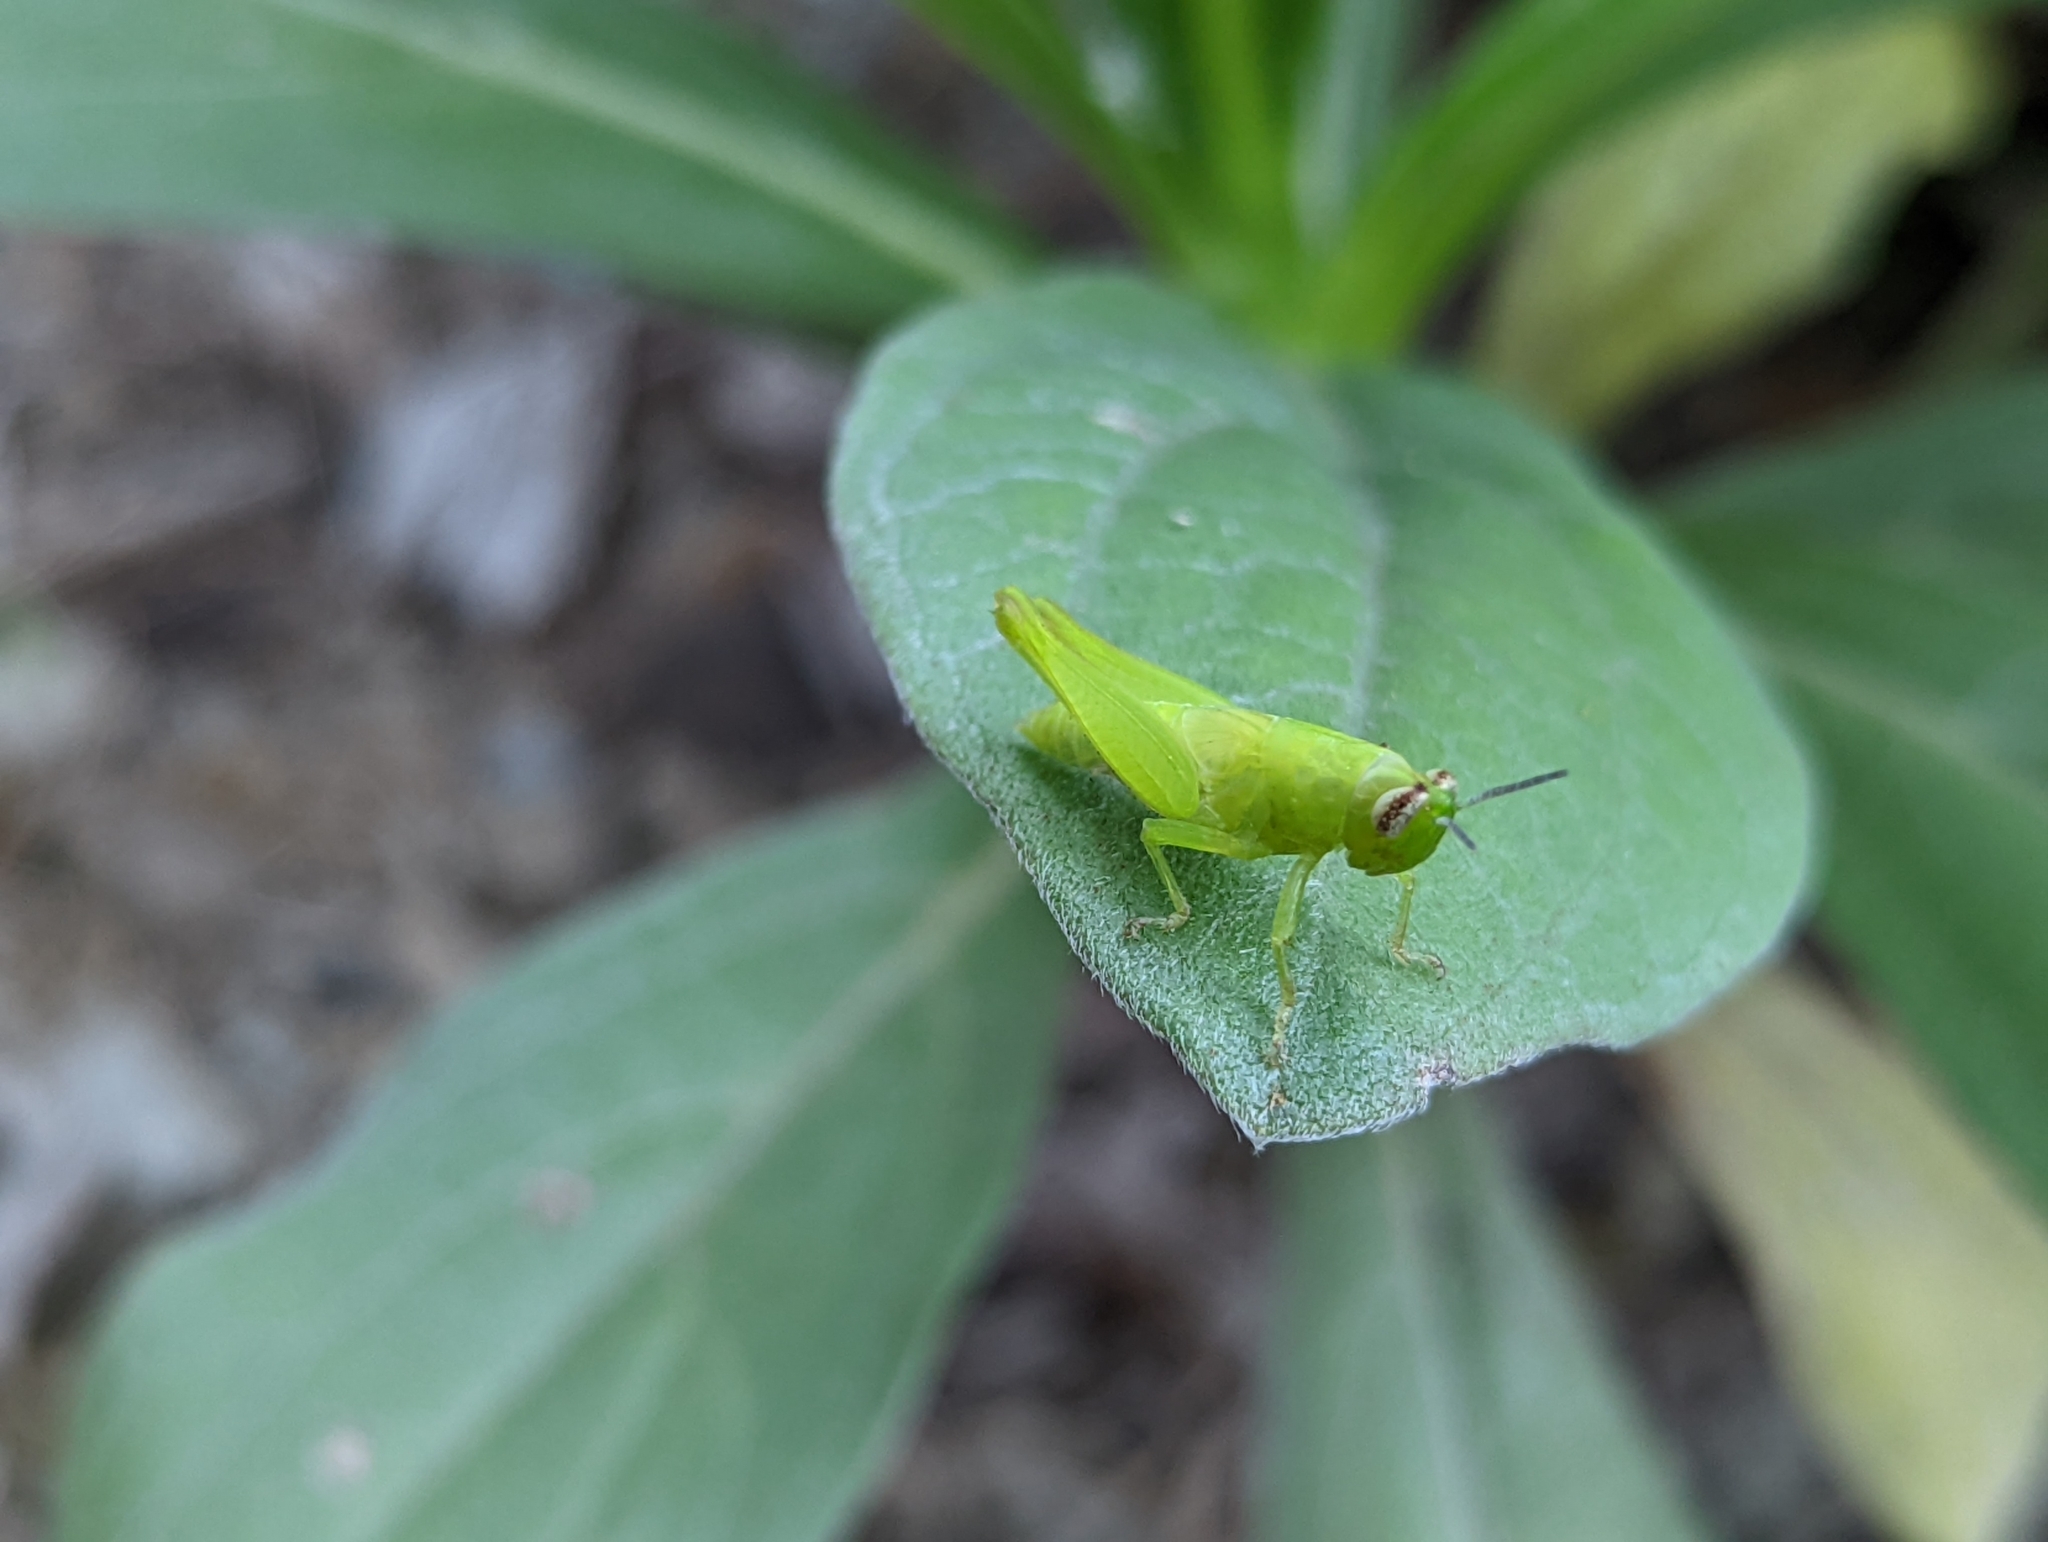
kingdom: Animalia
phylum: Arthropoda
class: Insecta
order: Orthoptera
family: Acrididae
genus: Pseudoxya
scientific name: Pseudoxya diminuta
